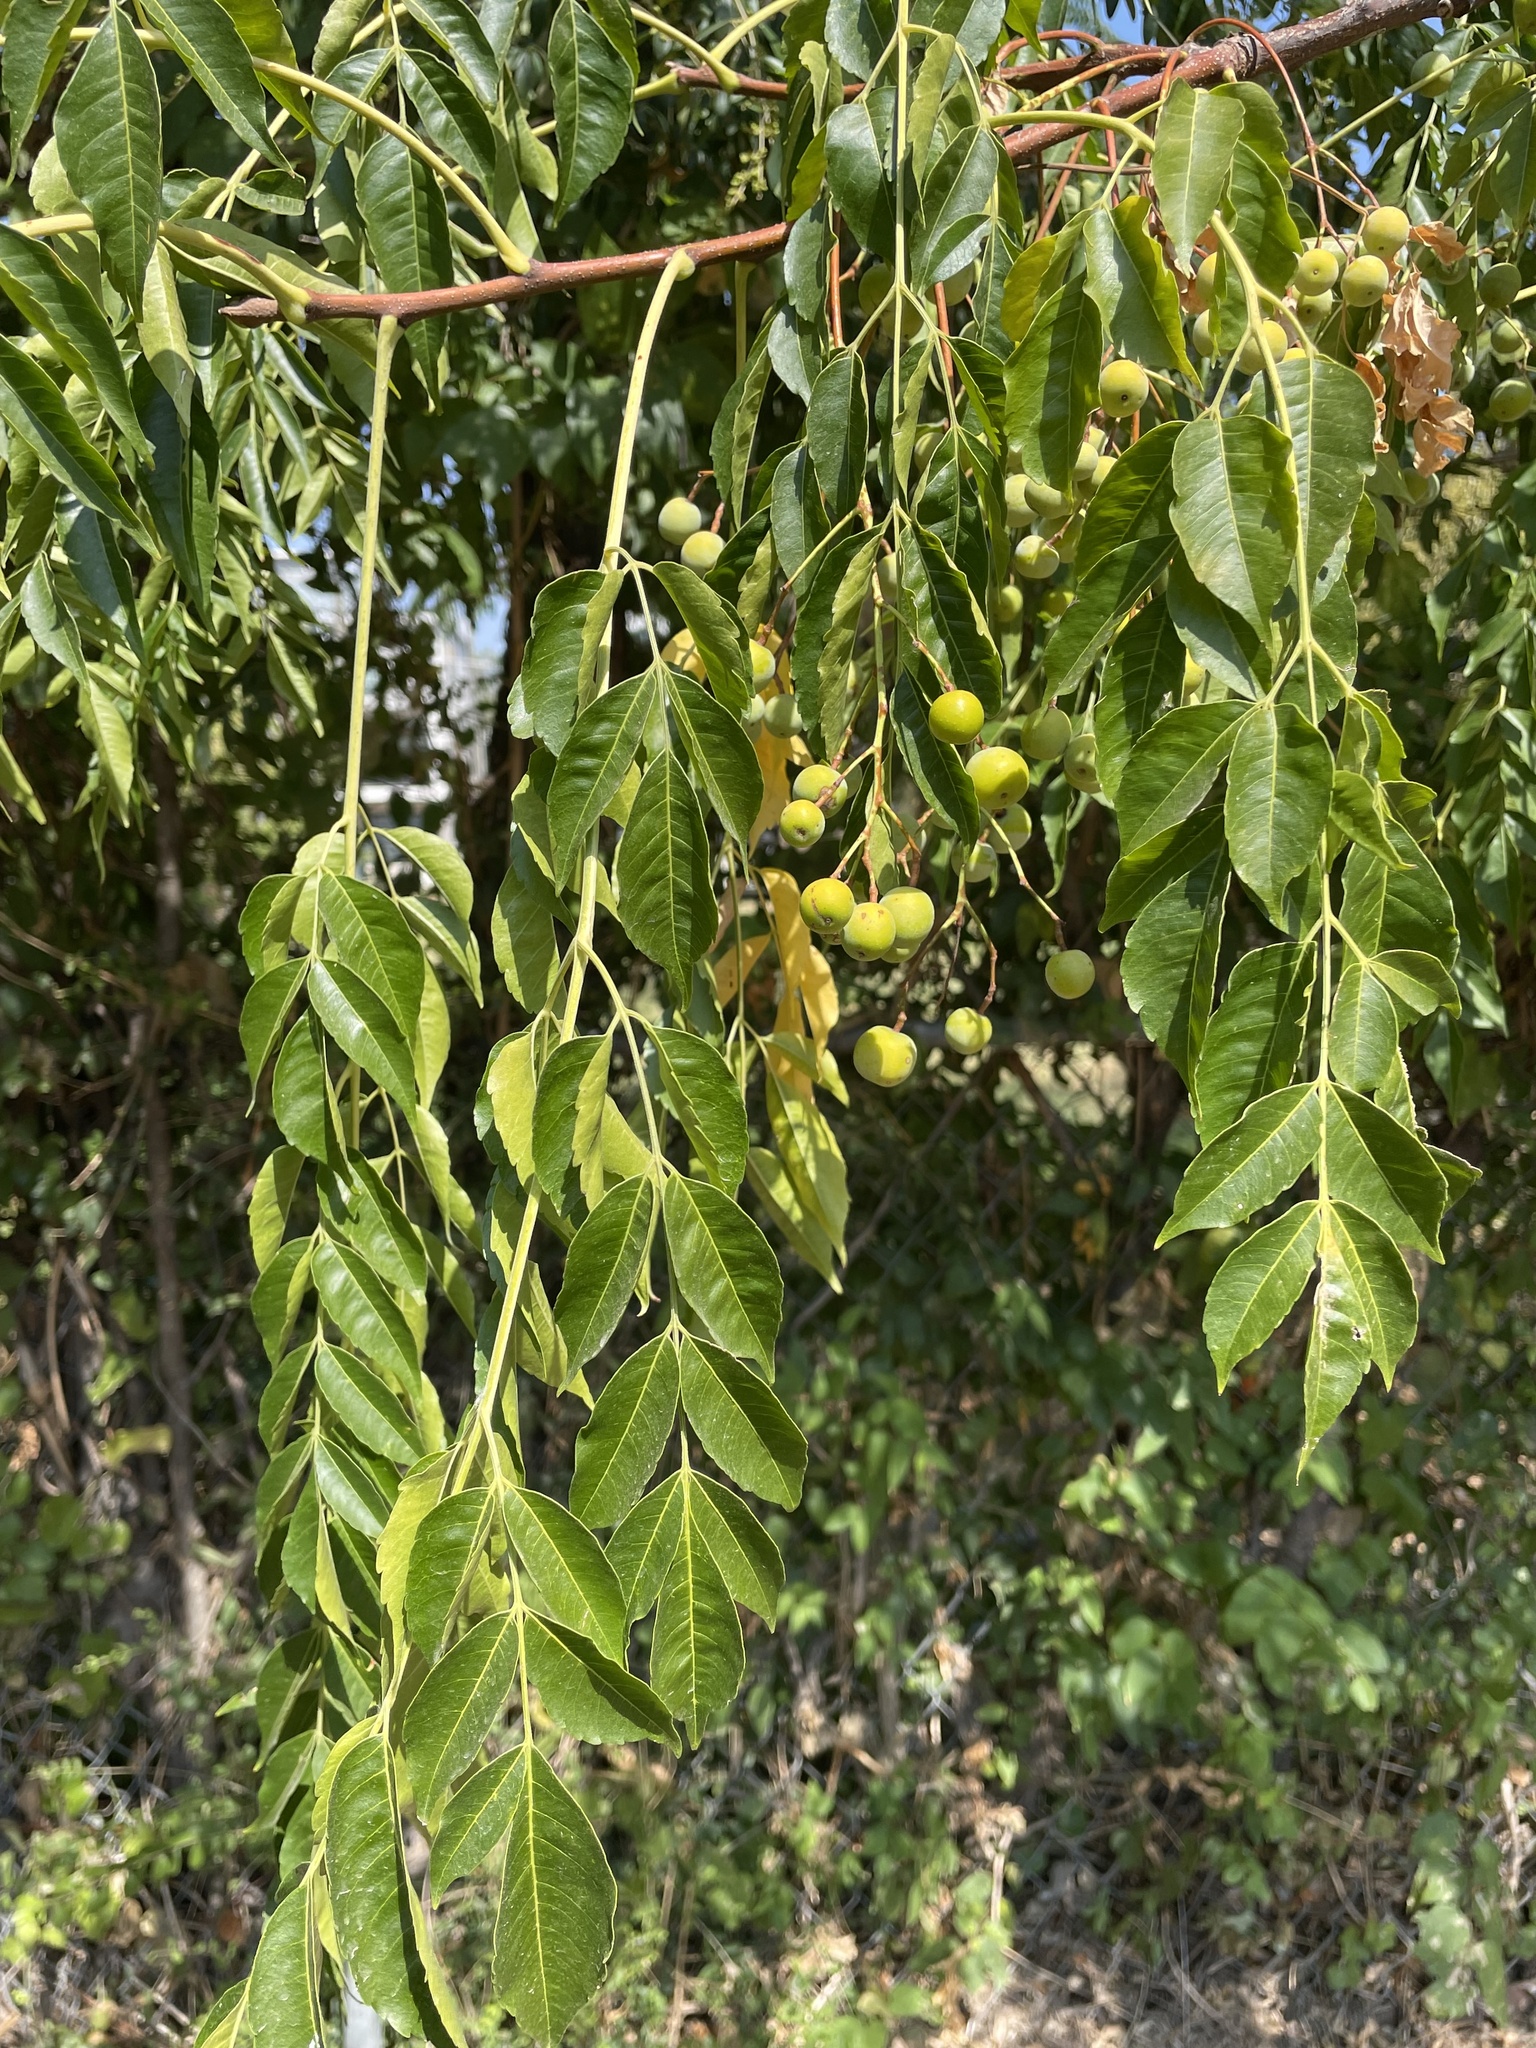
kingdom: Plantae
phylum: Tracheophyta
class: Magnoliopsida
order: Sapindales
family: Meliaceae
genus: Melia
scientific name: Melia azedarach
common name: Chinaberrytree
